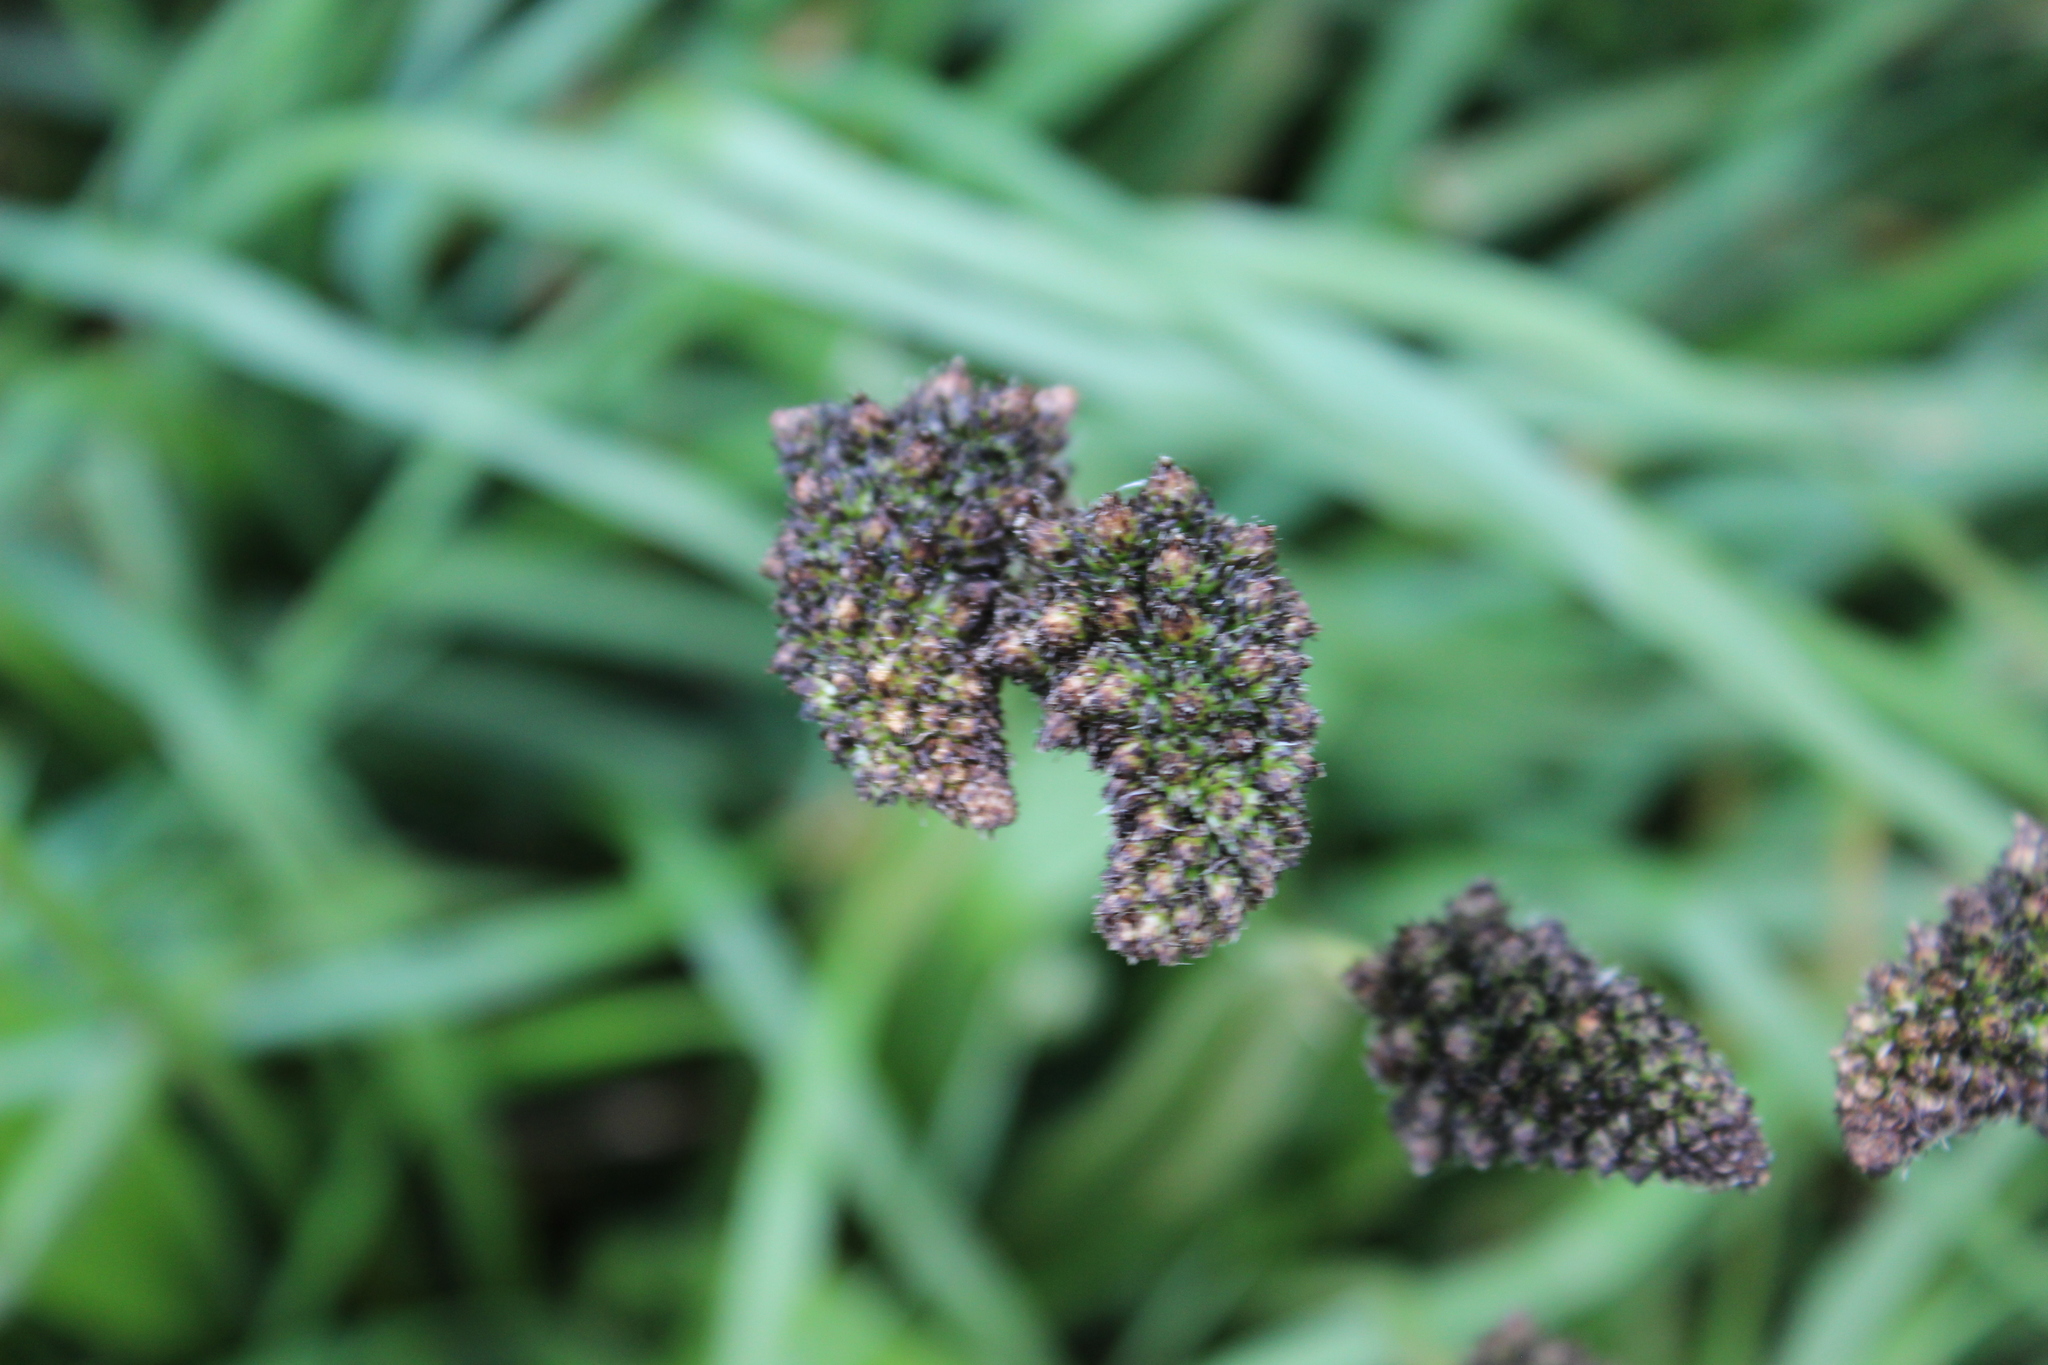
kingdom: Plantae
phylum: Tracheophyta
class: Magnoliopsida
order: Lamiales
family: Plantaginaceae
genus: Plantago
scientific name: Plantago lanceolata
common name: Ribwort plantain
